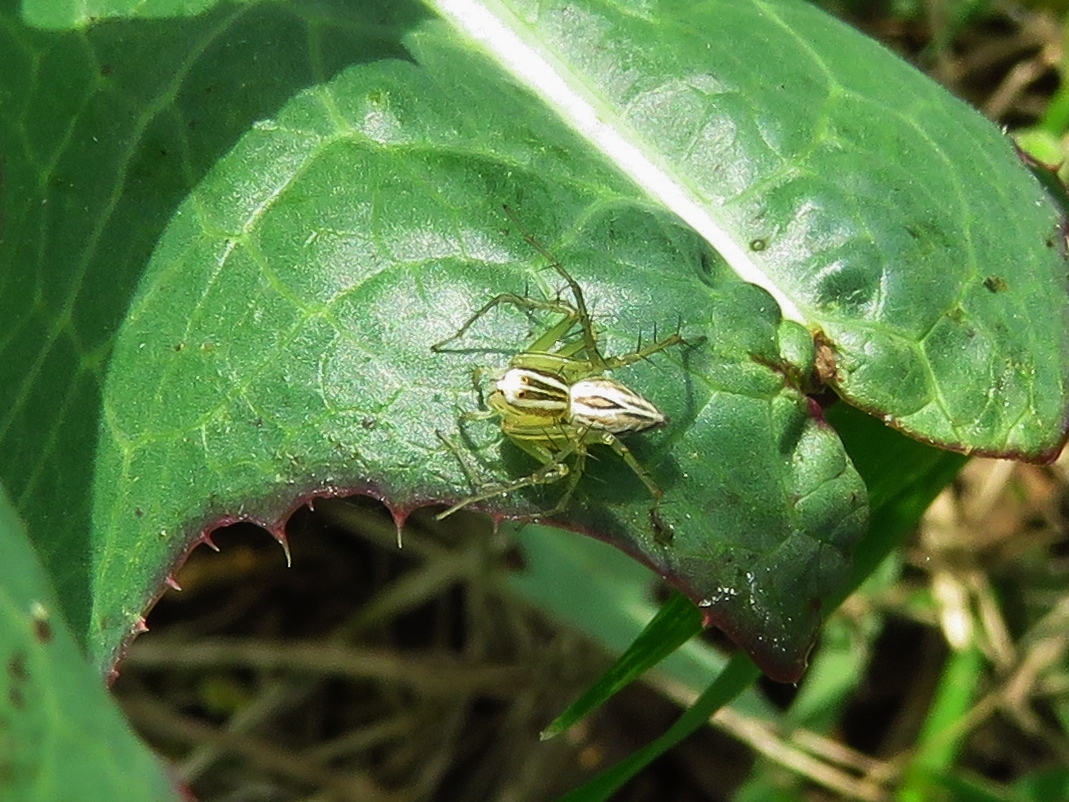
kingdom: Animalia
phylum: Arthropoda
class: Arachnida
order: Araneae
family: Oxyopidae
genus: Oxyopes
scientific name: Oxyopes salticus
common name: Lynx spiders
